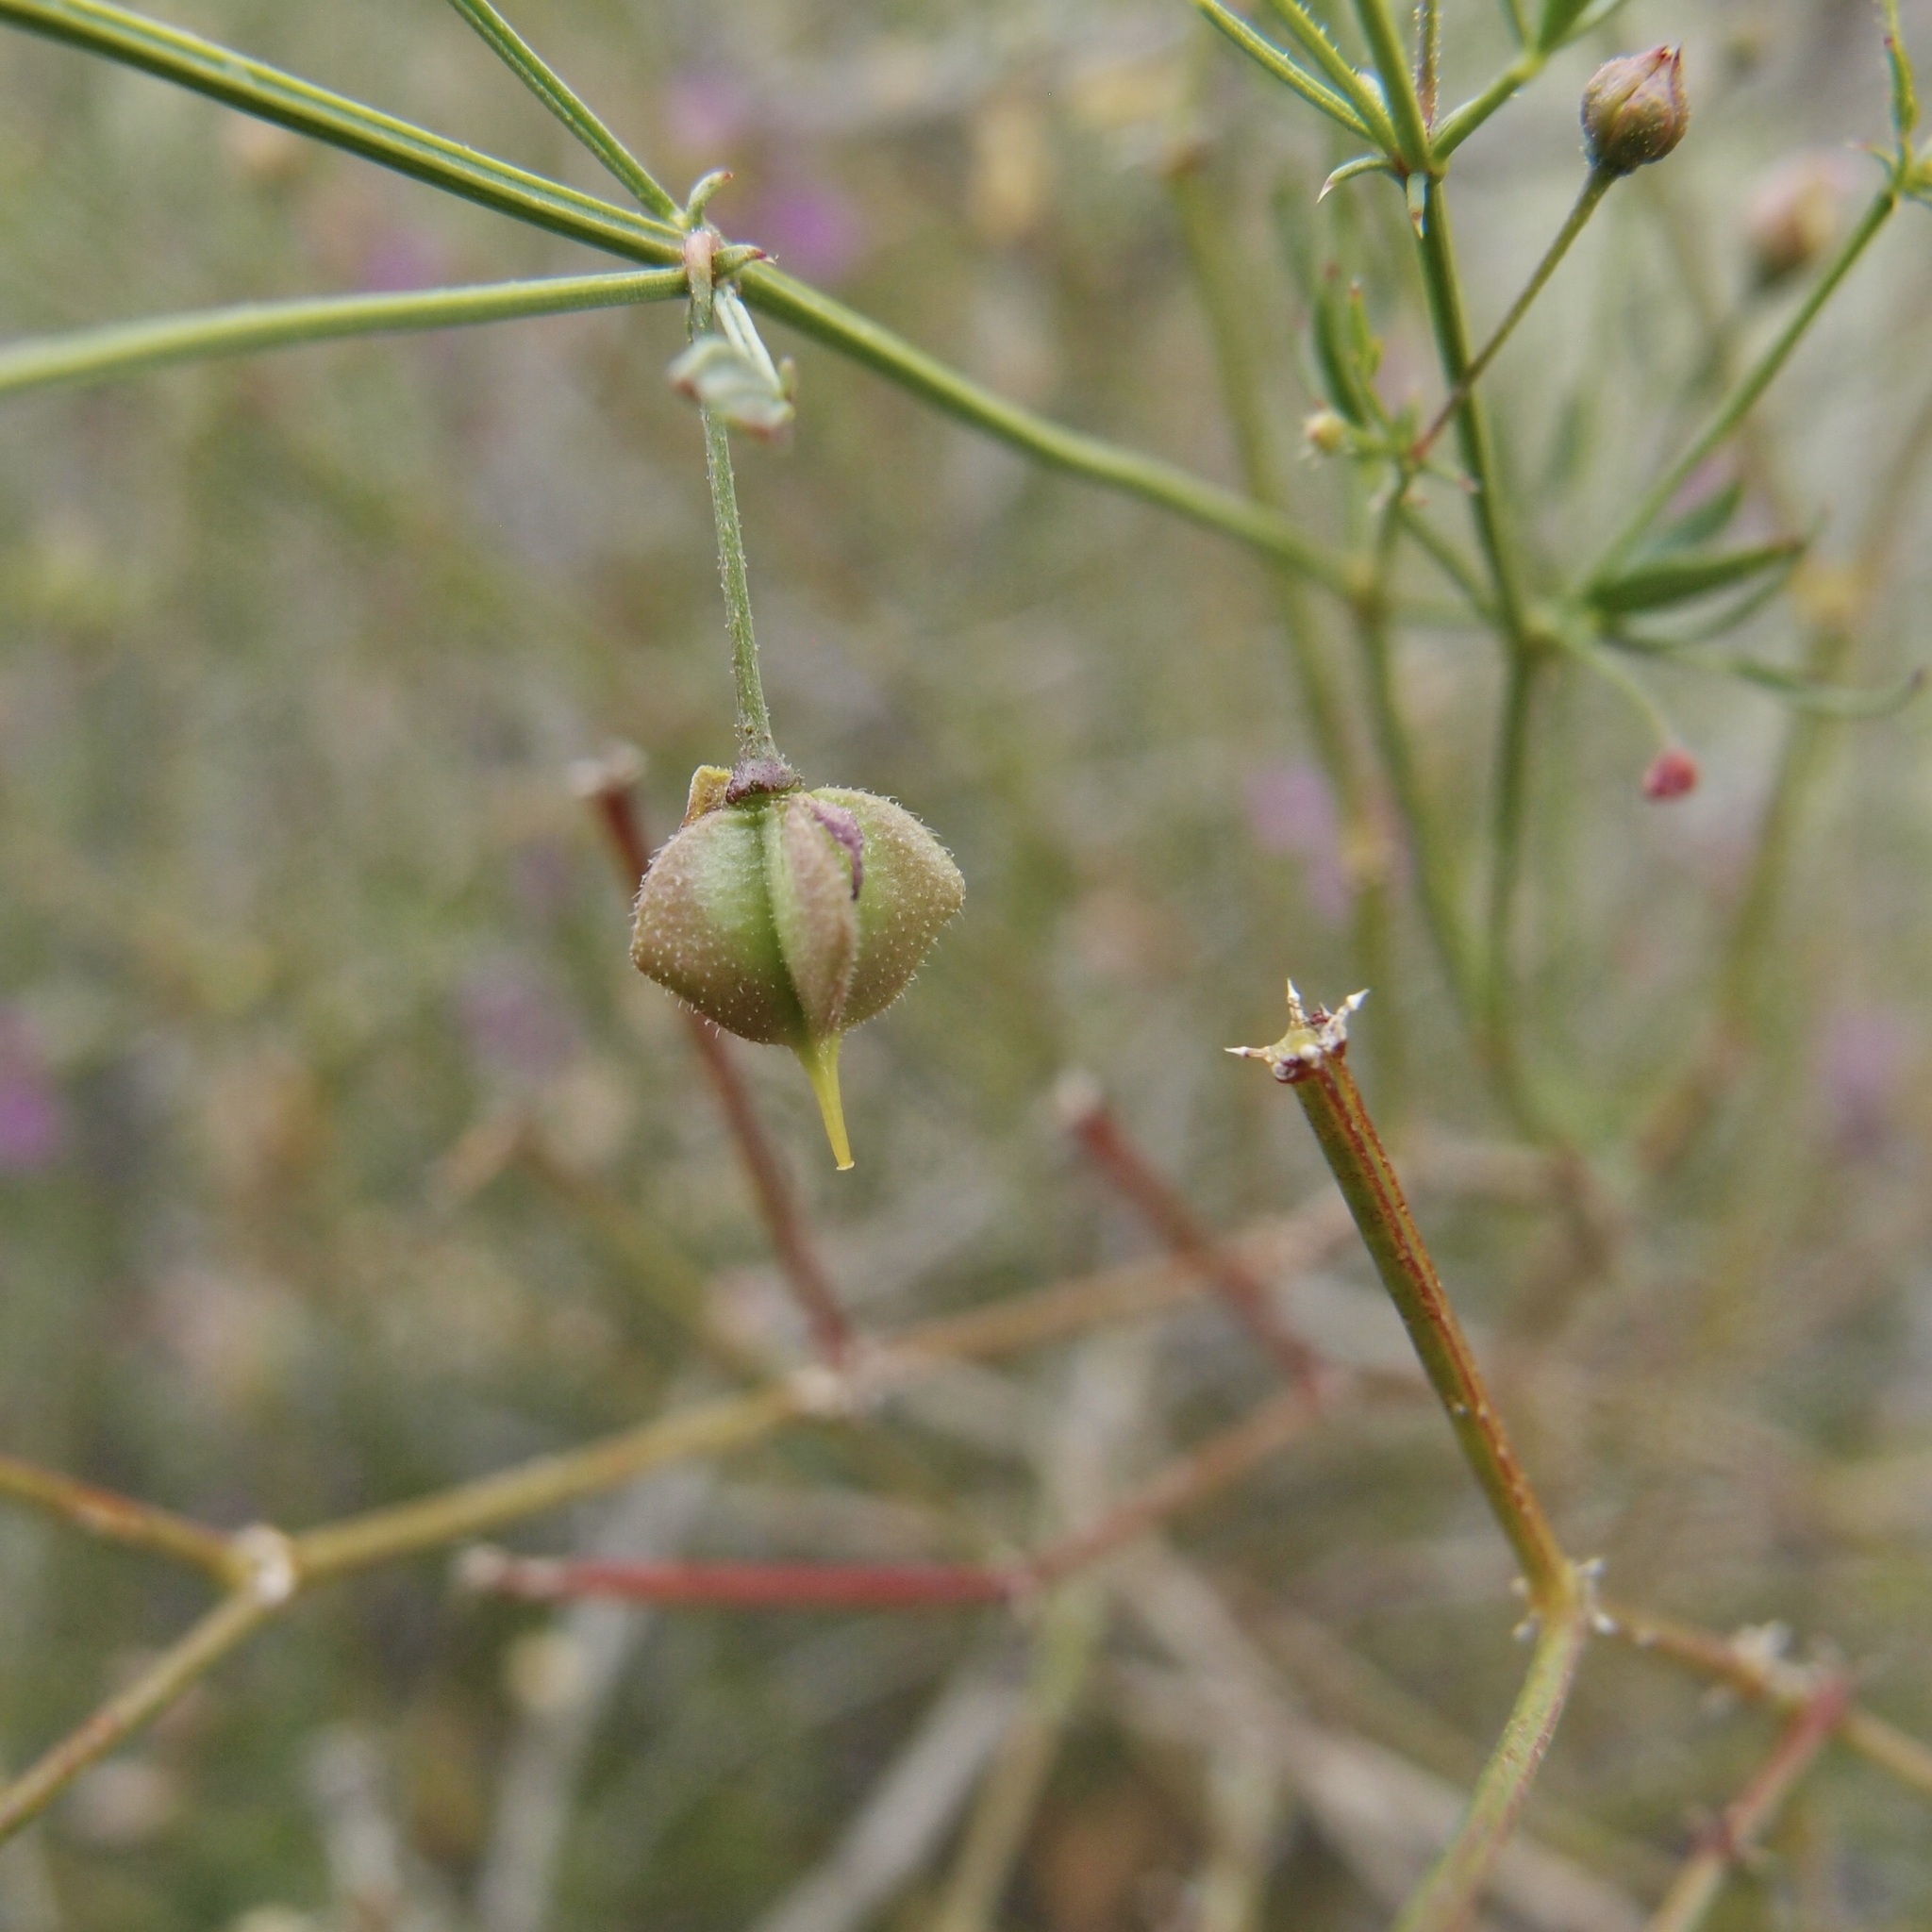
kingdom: Plantae
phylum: Tracheophyta
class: Magnoliopsida
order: Zygophyllales
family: Zygophyllaceae
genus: Fagonia
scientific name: Fagonia laevis
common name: California fagonbush
